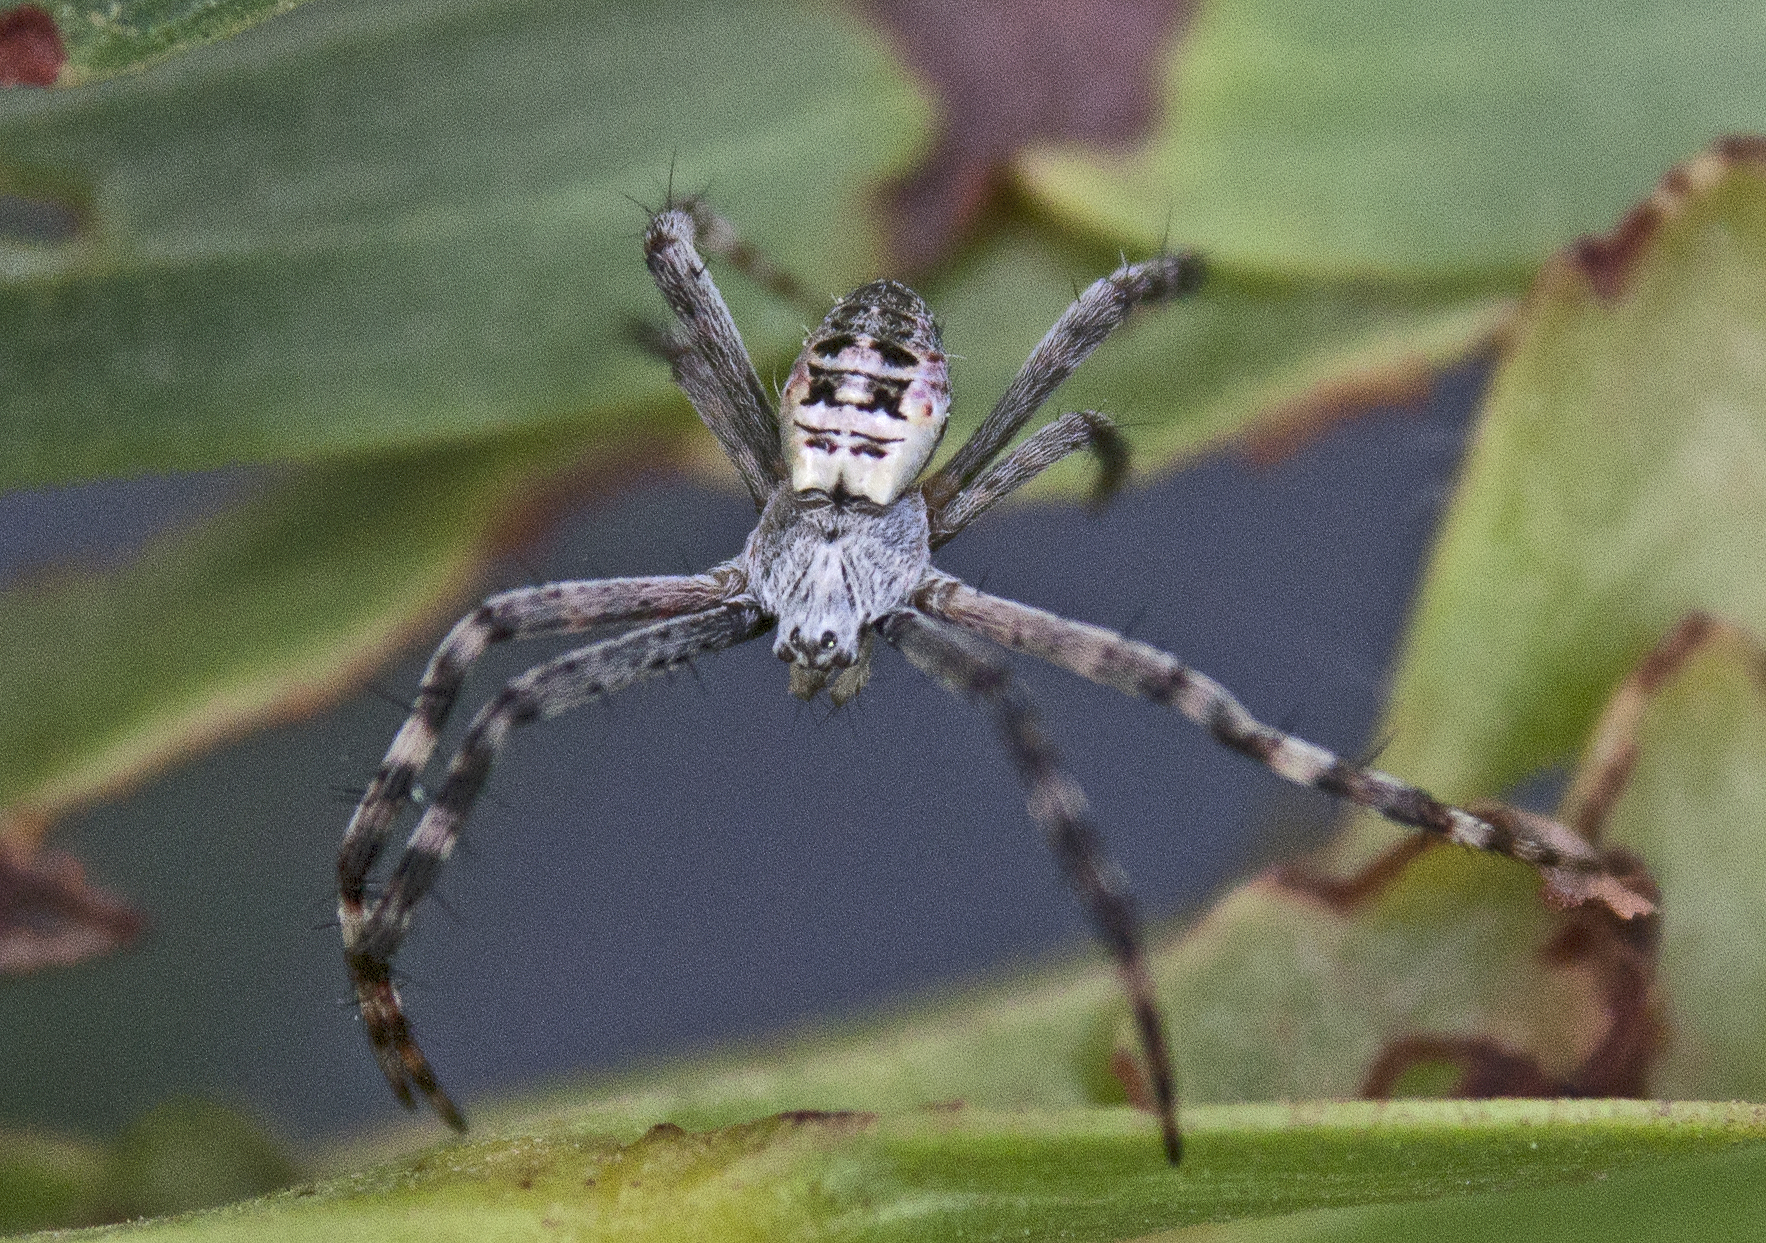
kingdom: Animalia
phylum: Arthropoda
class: Arachnida
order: Araneae
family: Araneidae
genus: Argiope
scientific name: Argiope keyserlingi
